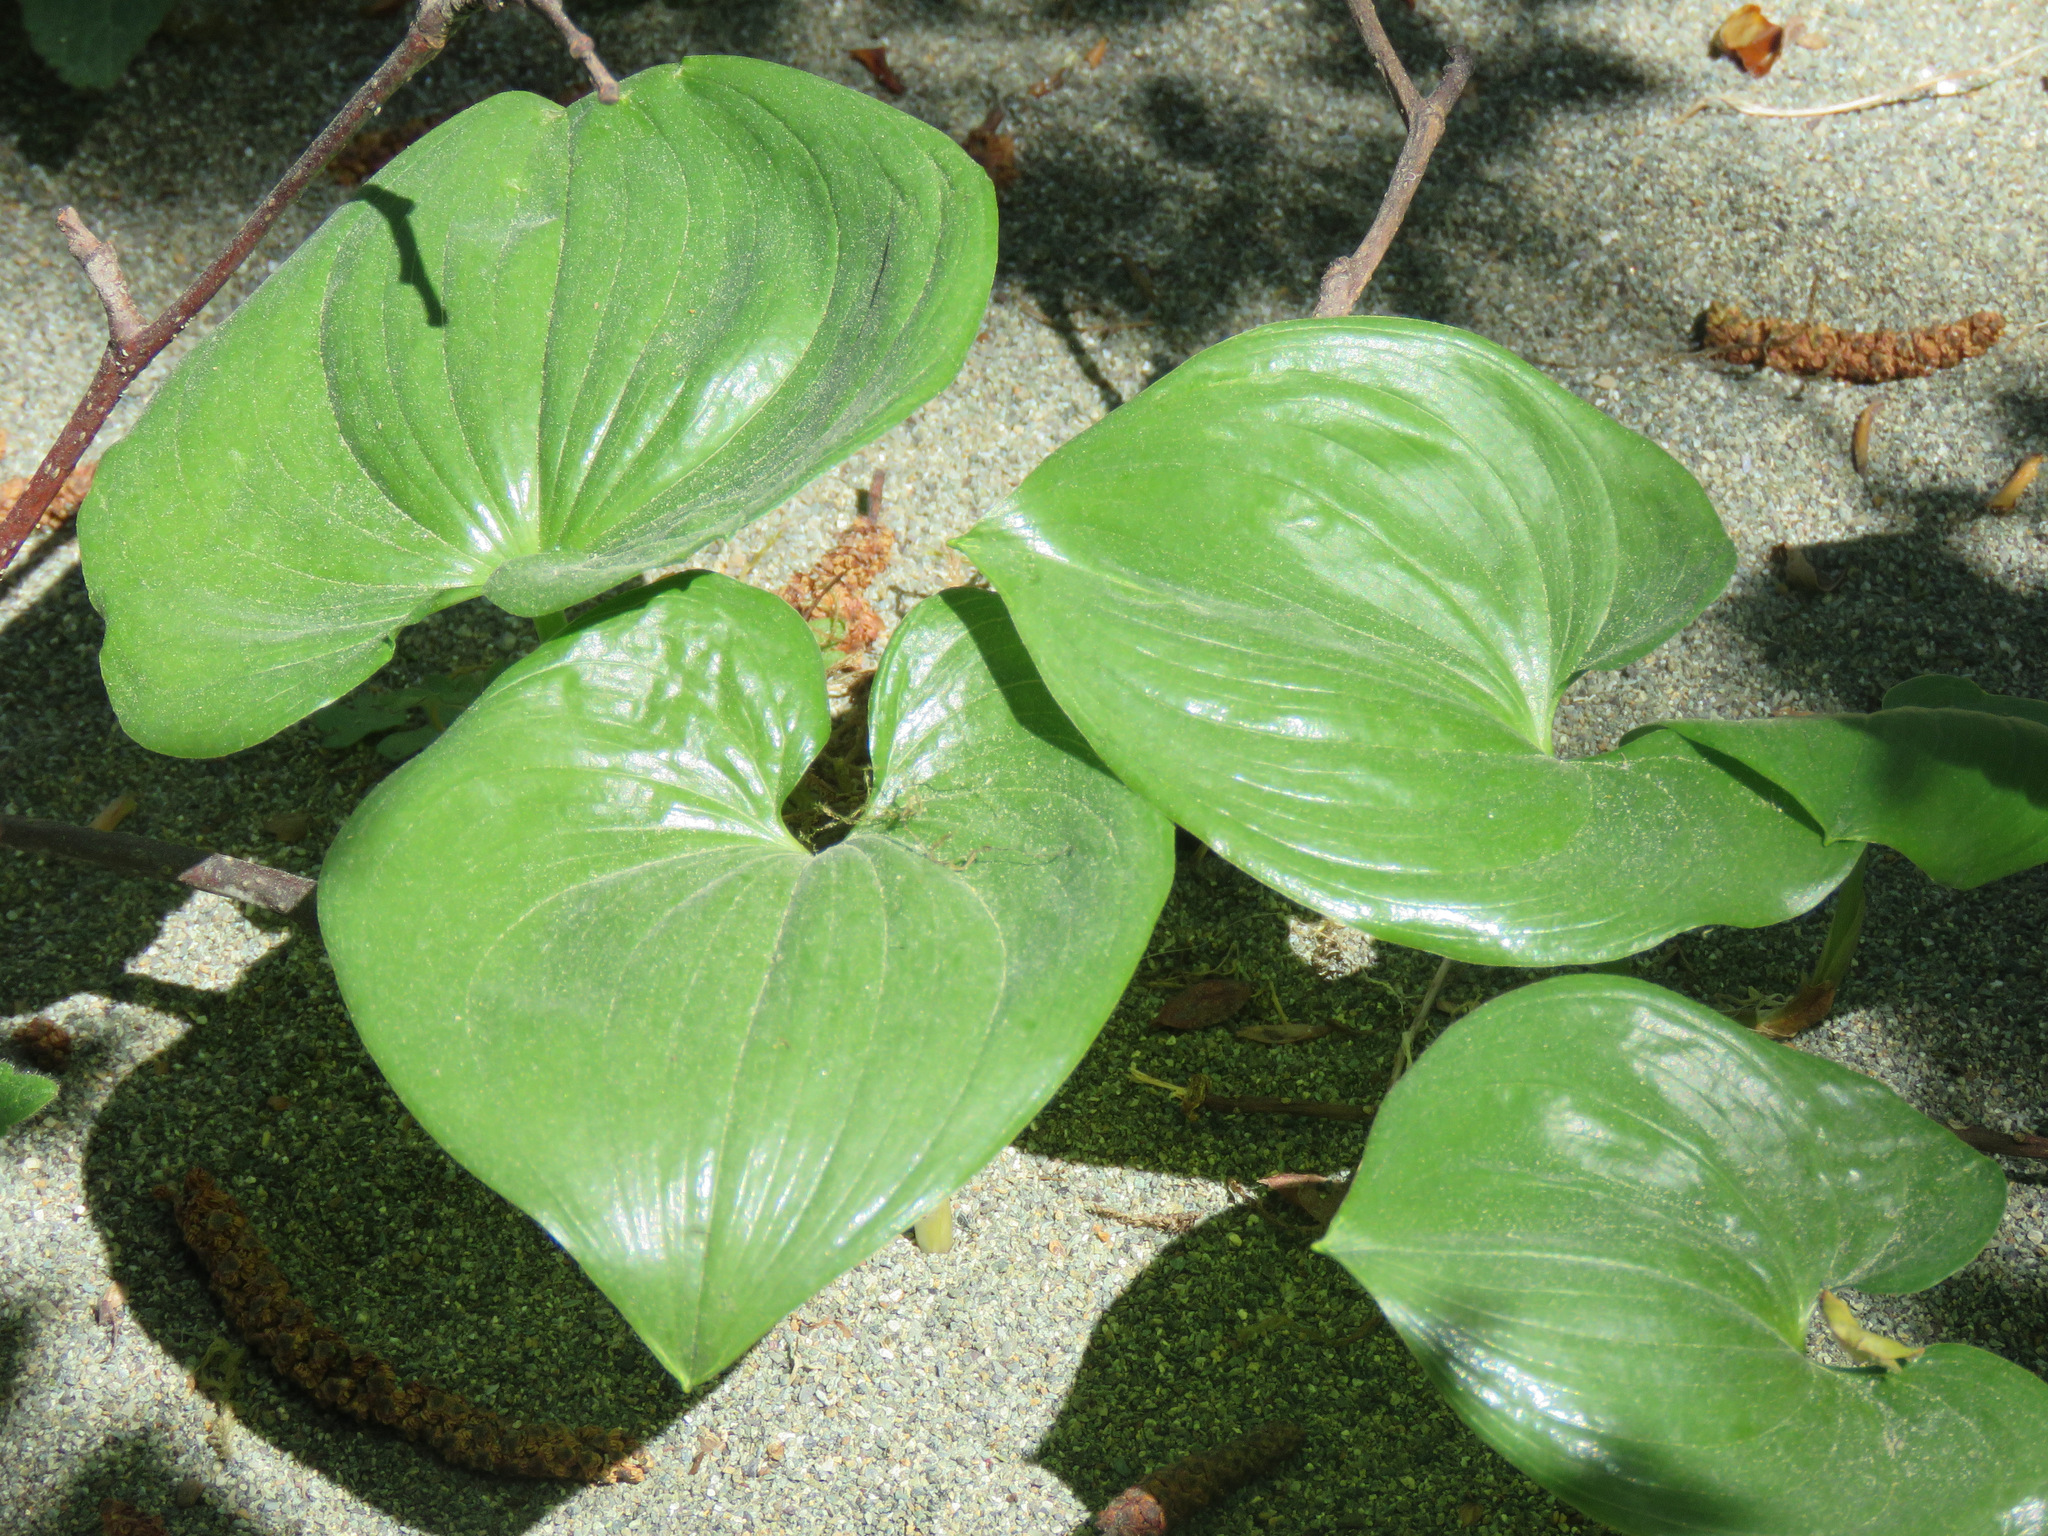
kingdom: Plantae
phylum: Tracheophyta
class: Liliopsida
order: Asparagales
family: Asparagaceae
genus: Maianthemum
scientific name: Maianthemum dilatatum
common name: False lily-of-the-valley
